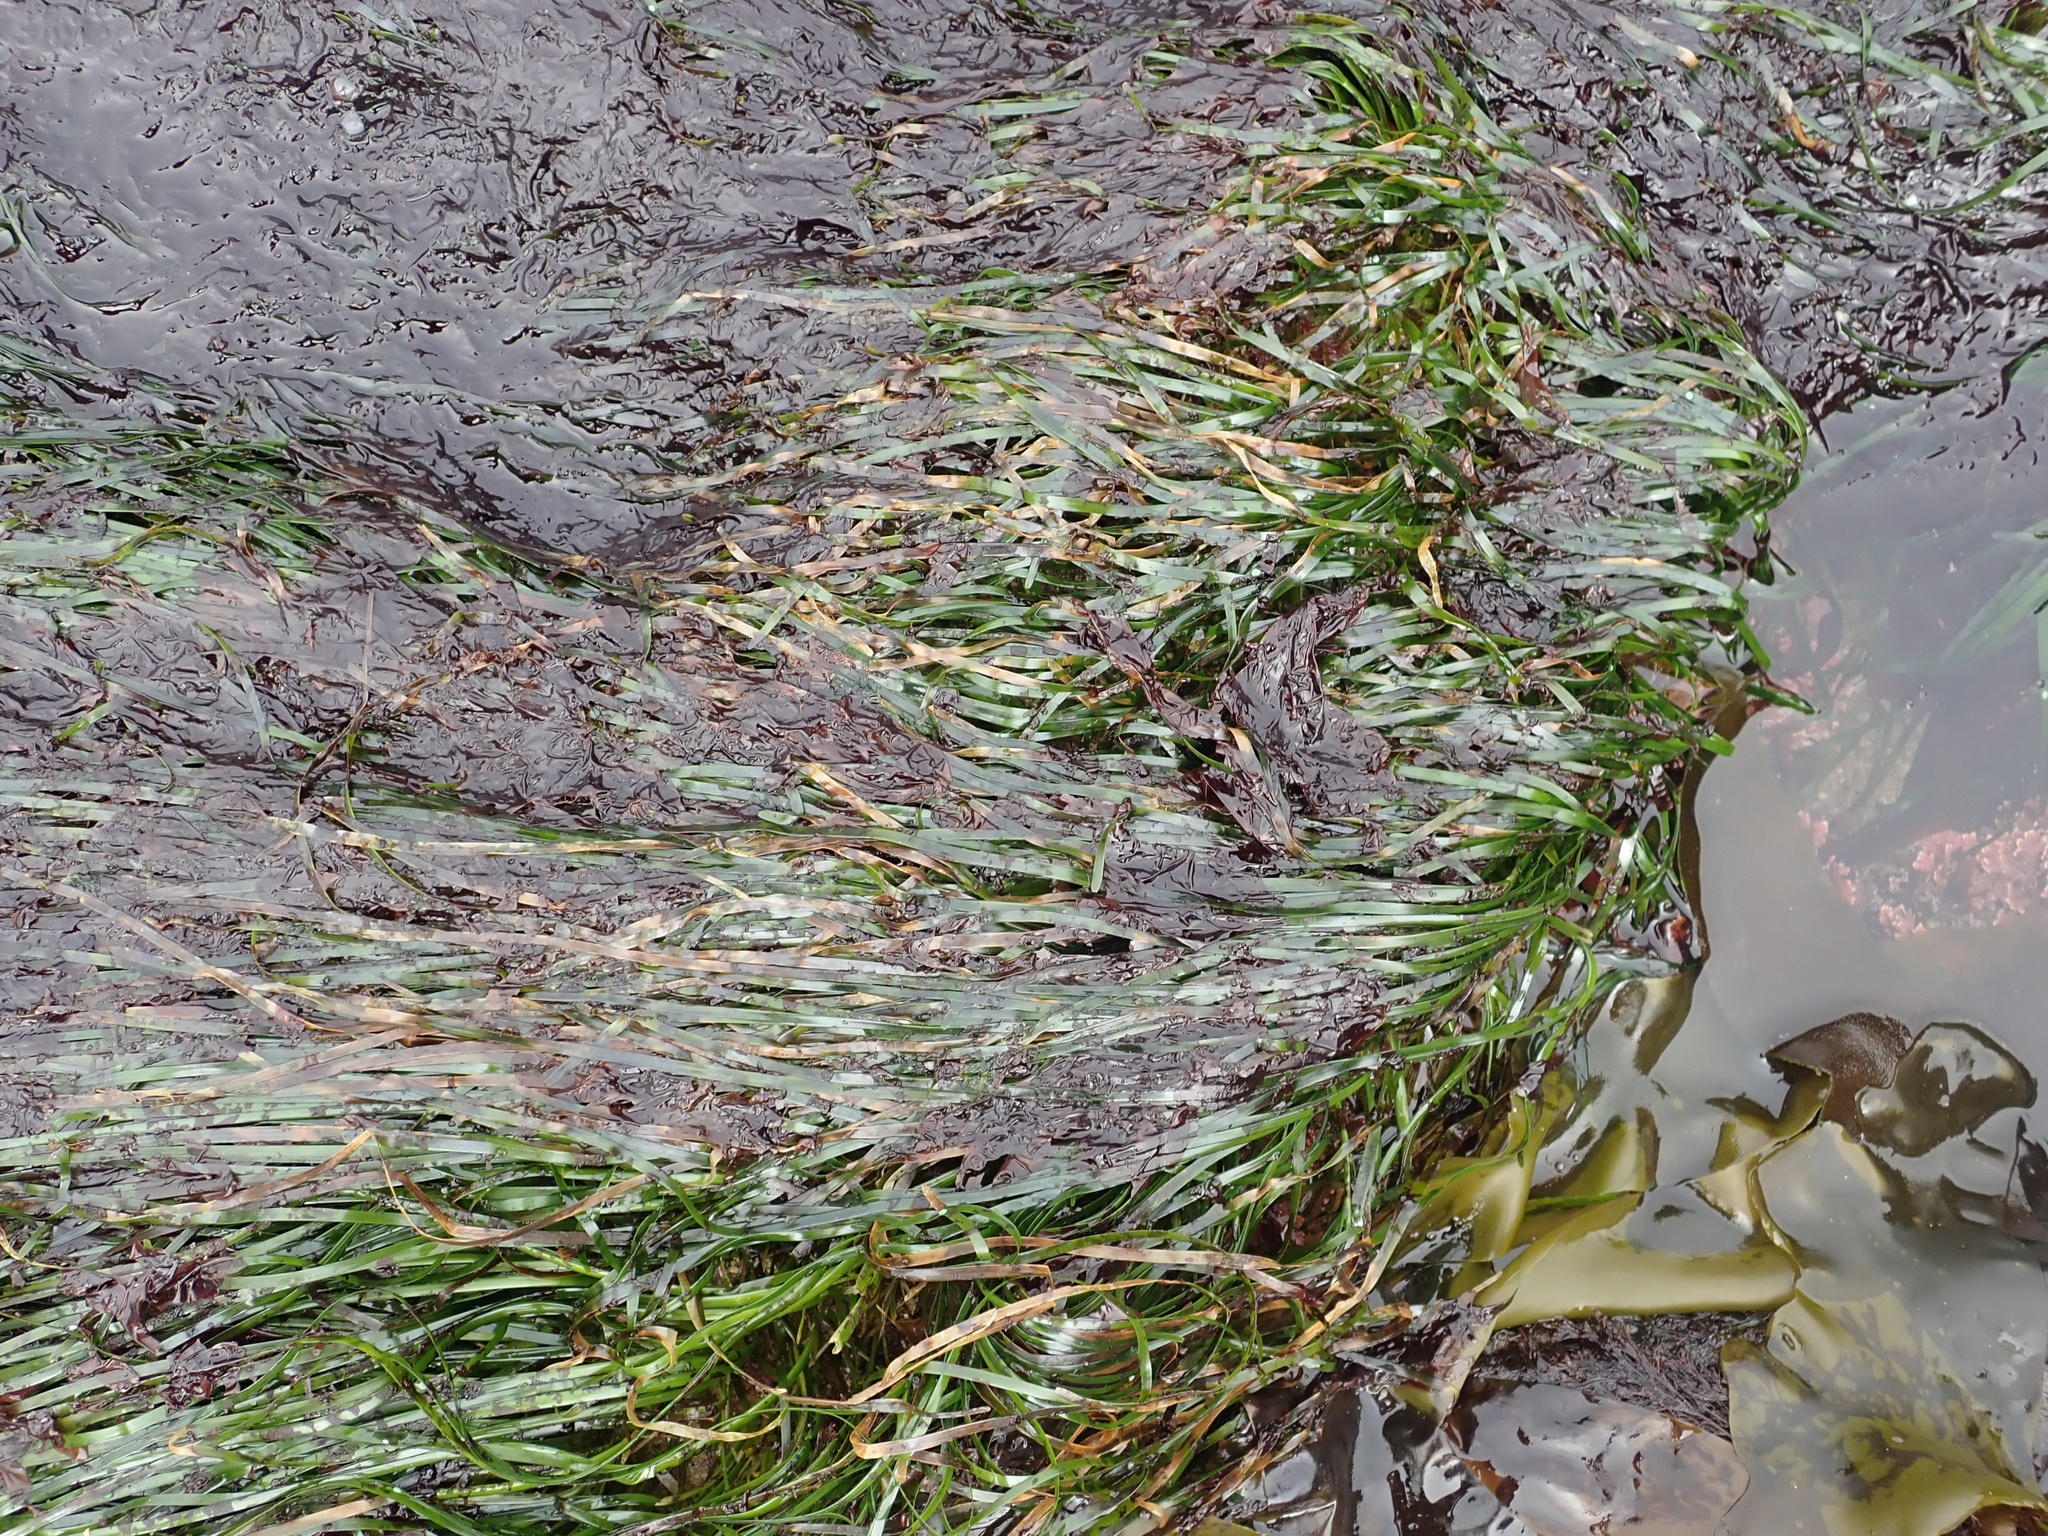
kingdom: Plantae
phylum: Tracheophyta
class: Liliopsida
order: Alismatales
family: Zosteraceae
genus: Phyllospadix
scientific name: Phyllospadix scouleri
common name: Species code: ps
